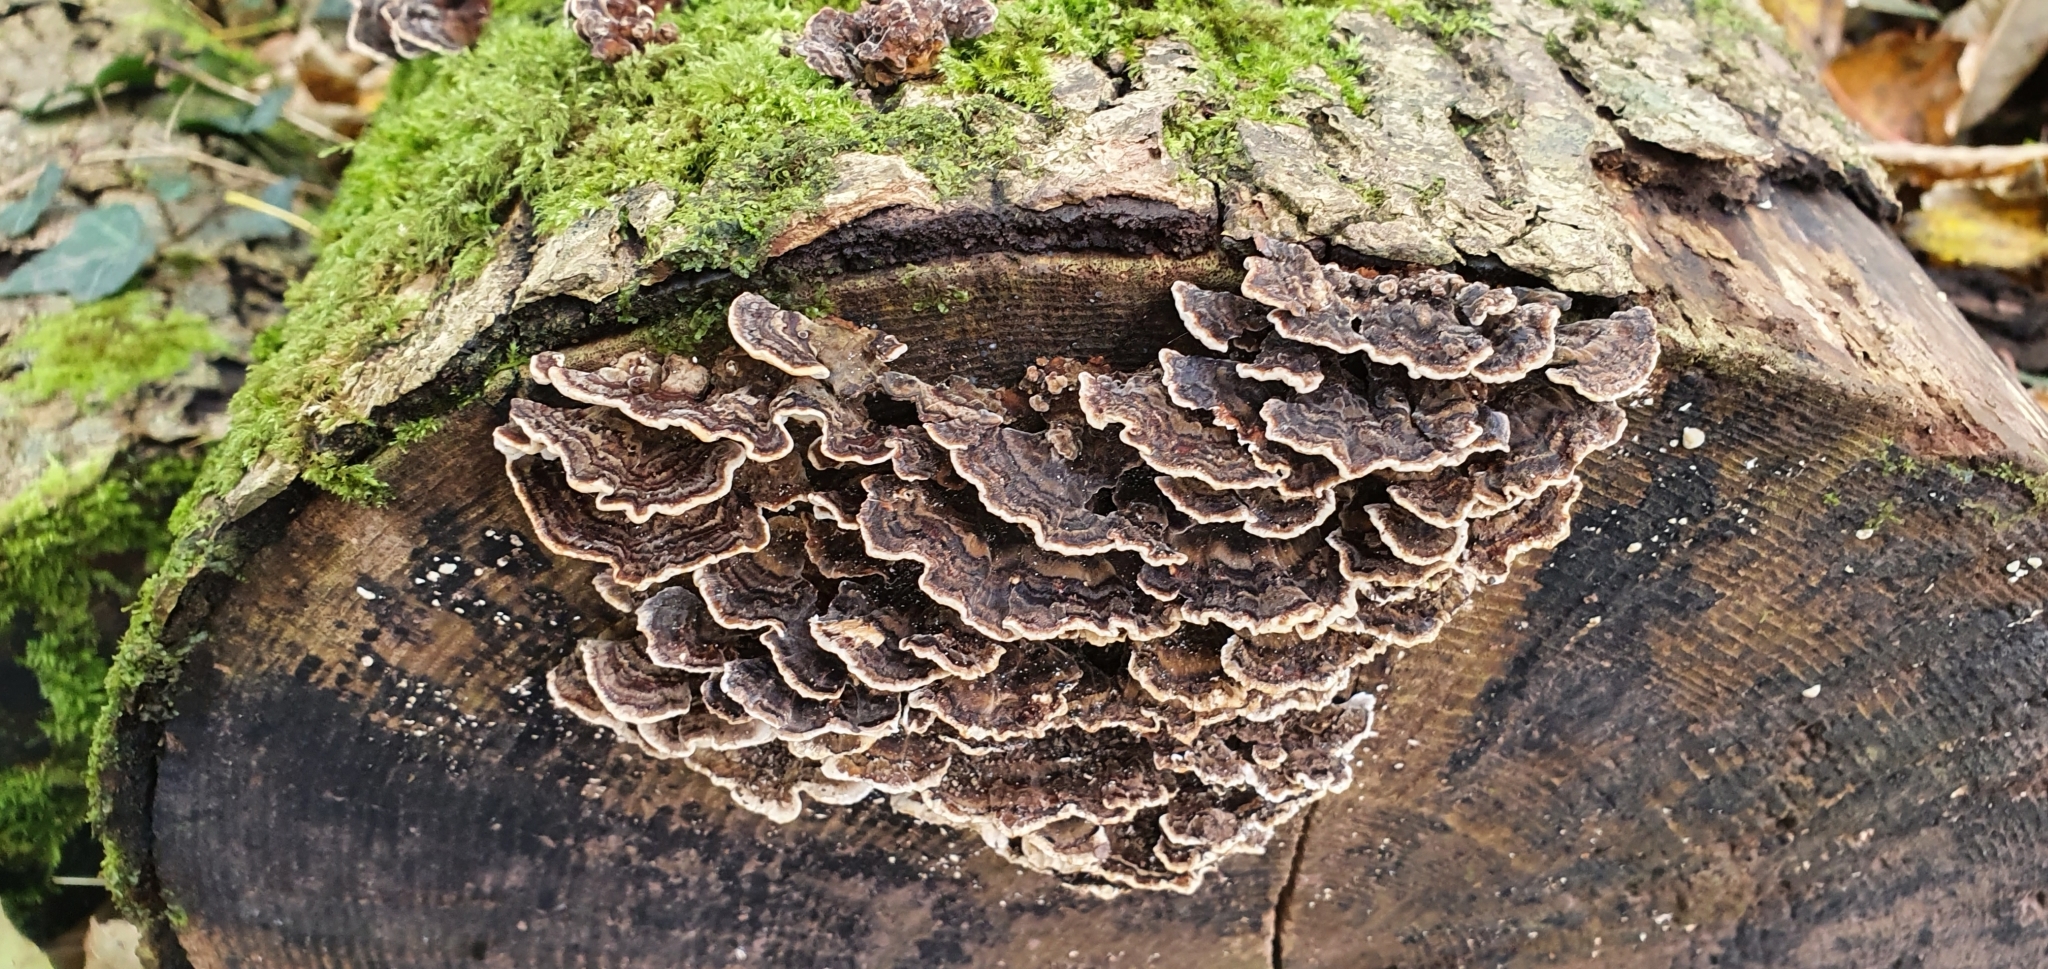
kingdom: Fungi
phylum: Basidiomycota
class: Agaricomycetes
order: Polyporales
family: Polyporaceae
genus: Trametes
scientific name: Trametes versicolor
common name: Turkeytail
